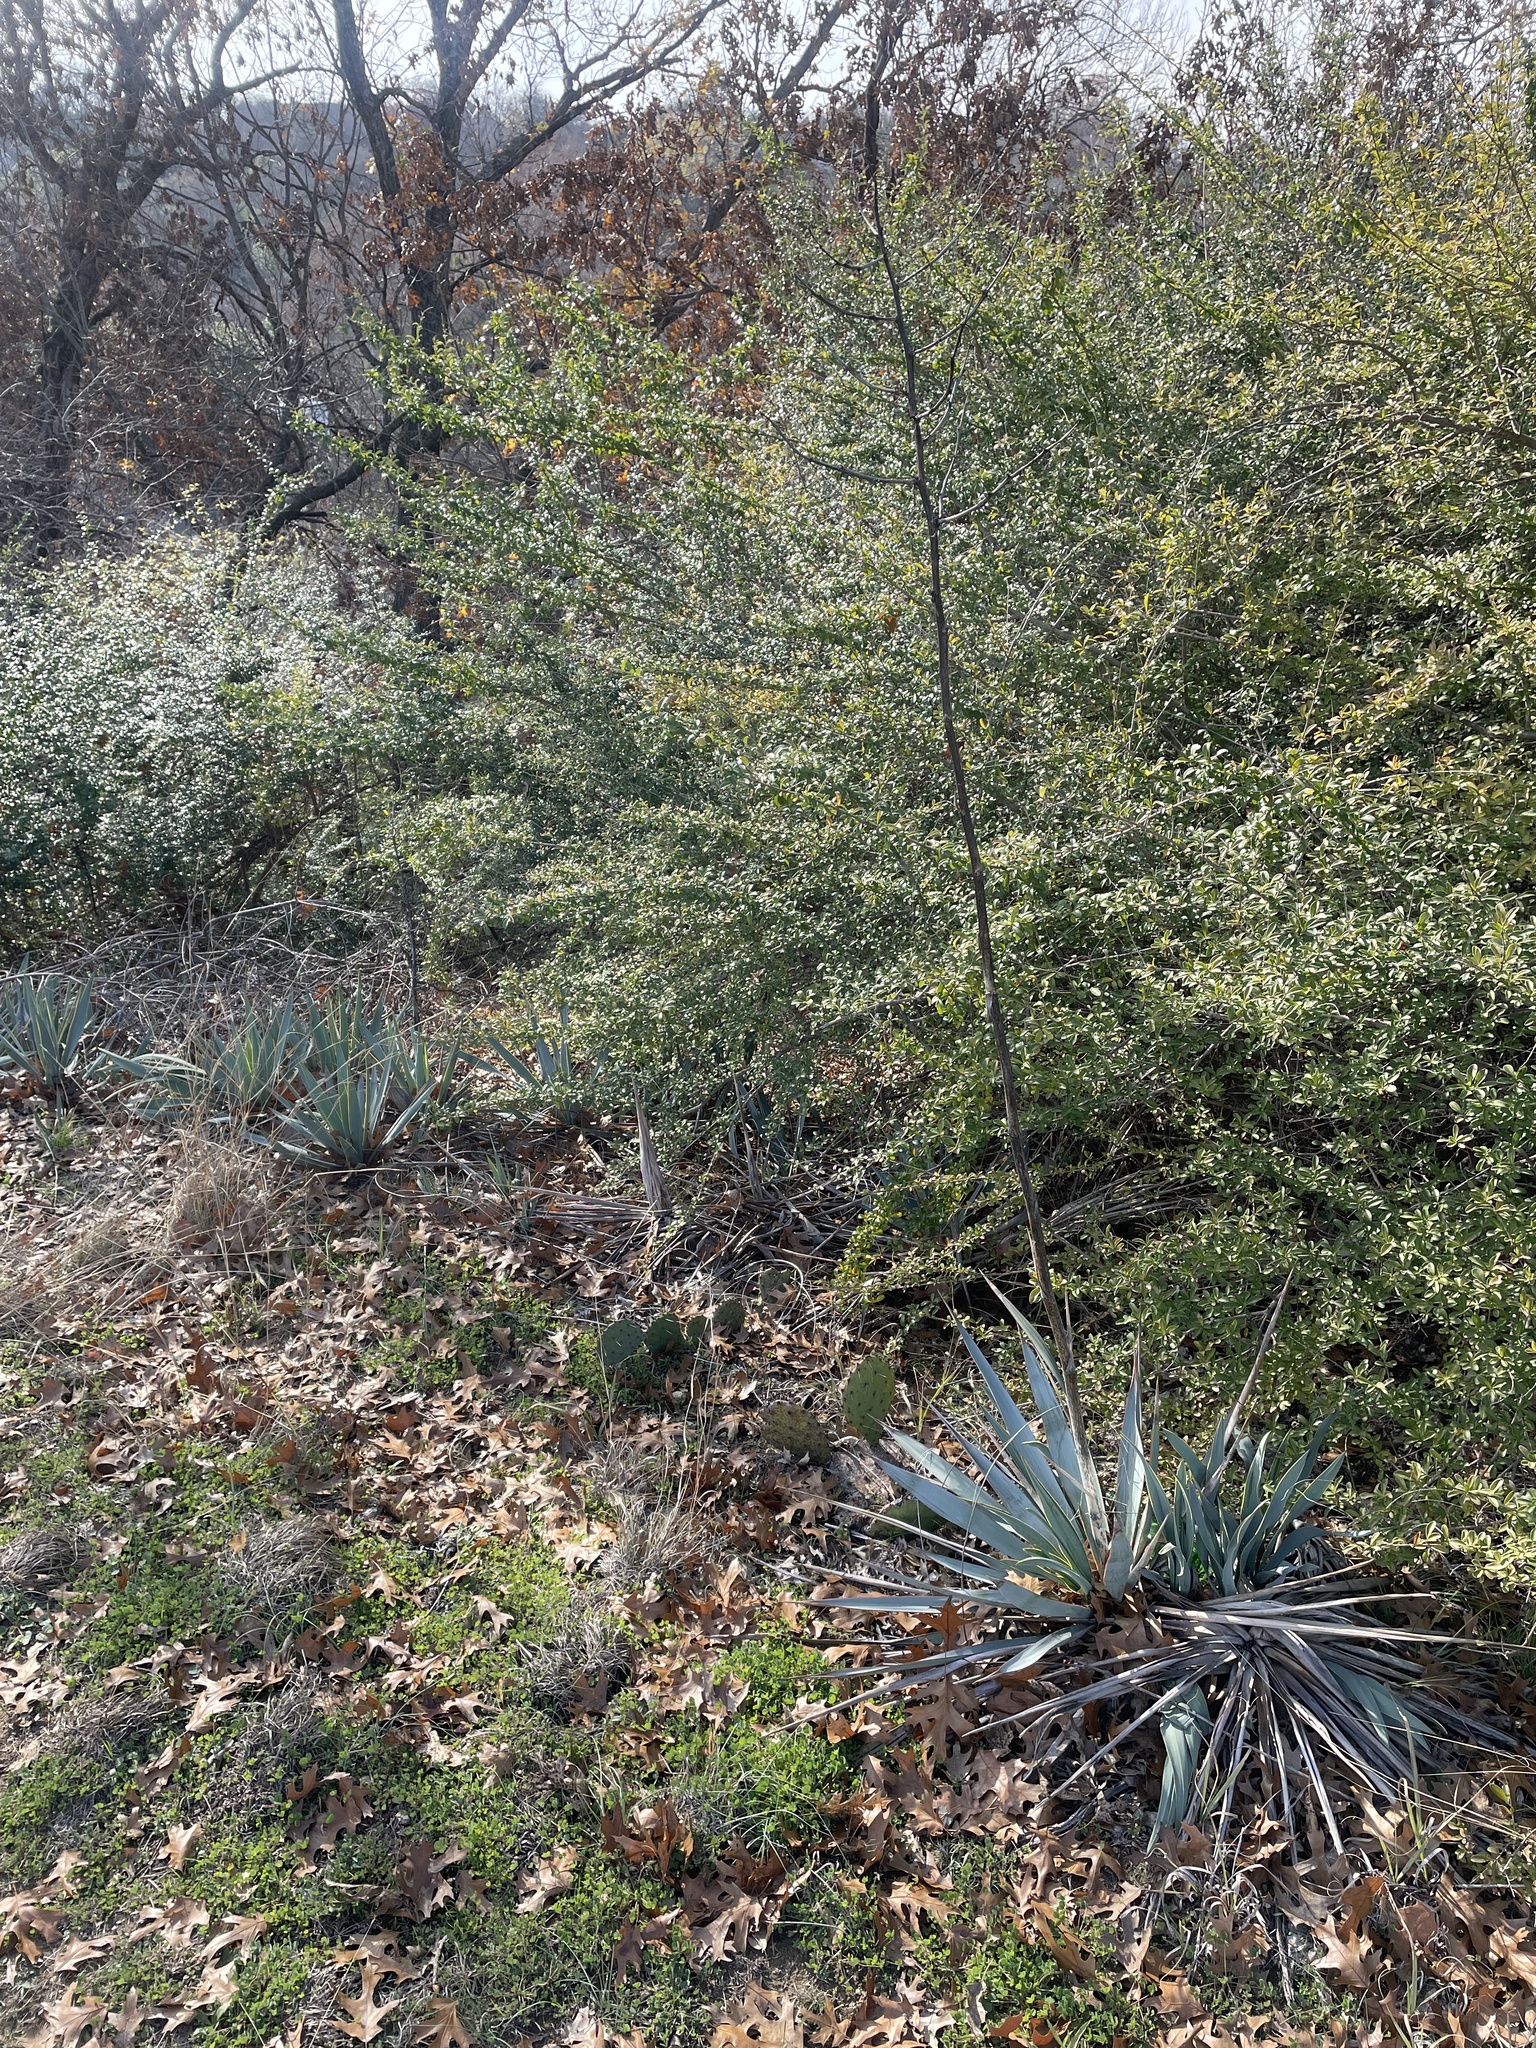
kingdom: Plantae
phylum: Tracheophyta
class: Liliopsida
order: Asparagales
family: Asparagaceae
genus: Yucca
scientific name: Yucca pallida
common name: Pale leaf yucca
